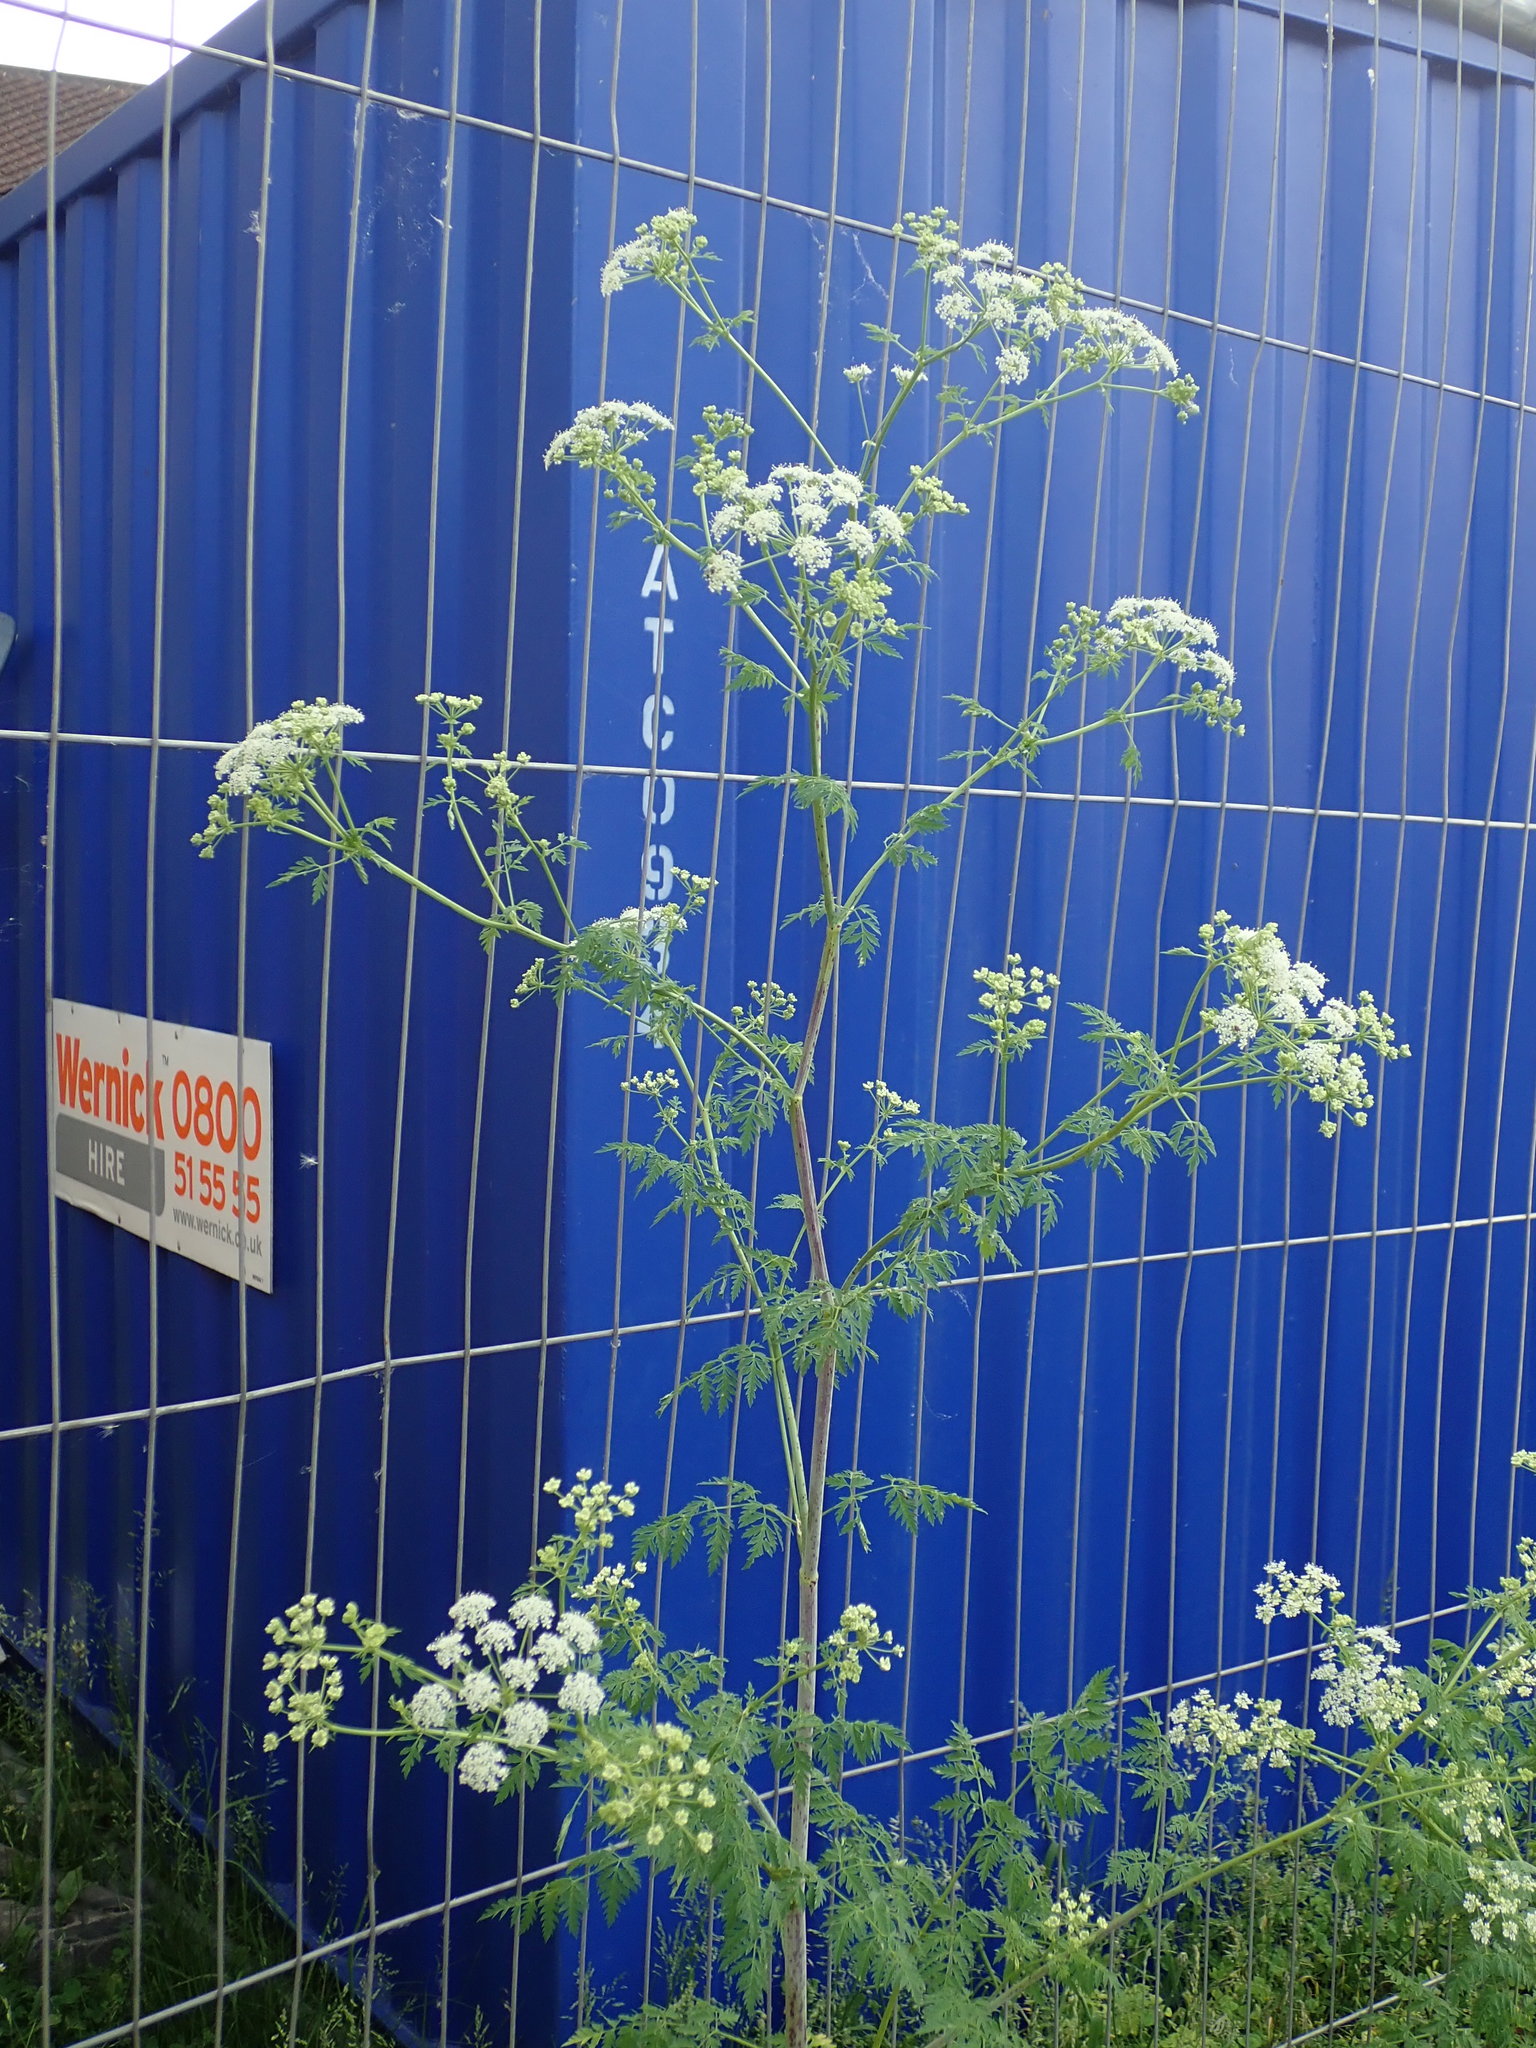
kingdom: Plantae
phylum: Tracheophyta
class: Magnoliopsida
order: Apiales
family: Apiaceae
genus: Conium
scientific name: Conium maculatum
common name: Hemlock
